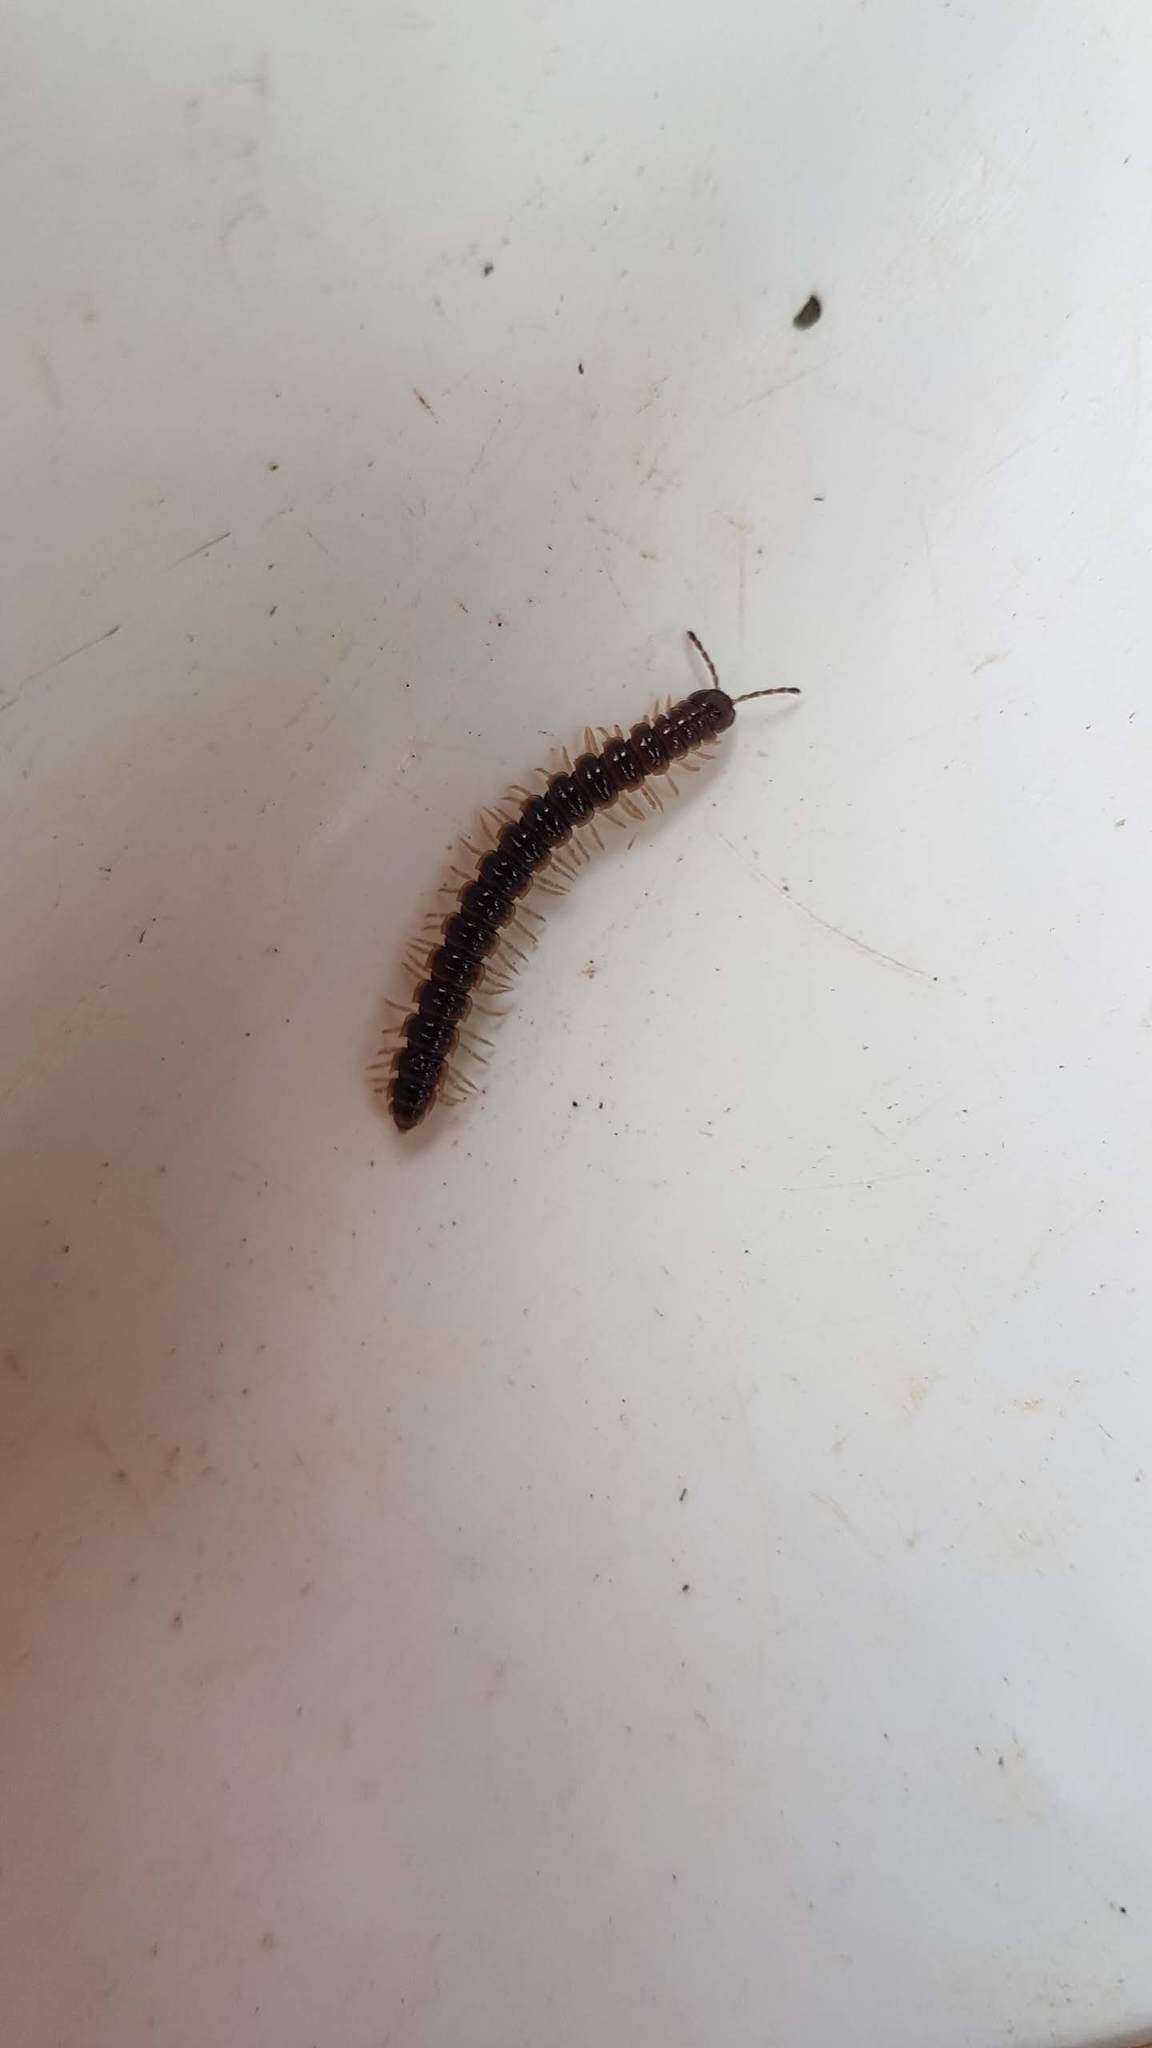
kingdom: Animalia
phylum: Arthropoda
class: Diplopoda
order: Polydesmida
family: Paradoxosomatidae
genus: Oxidus
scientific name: Oxidus gracilis
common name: Greenhouse millipede
